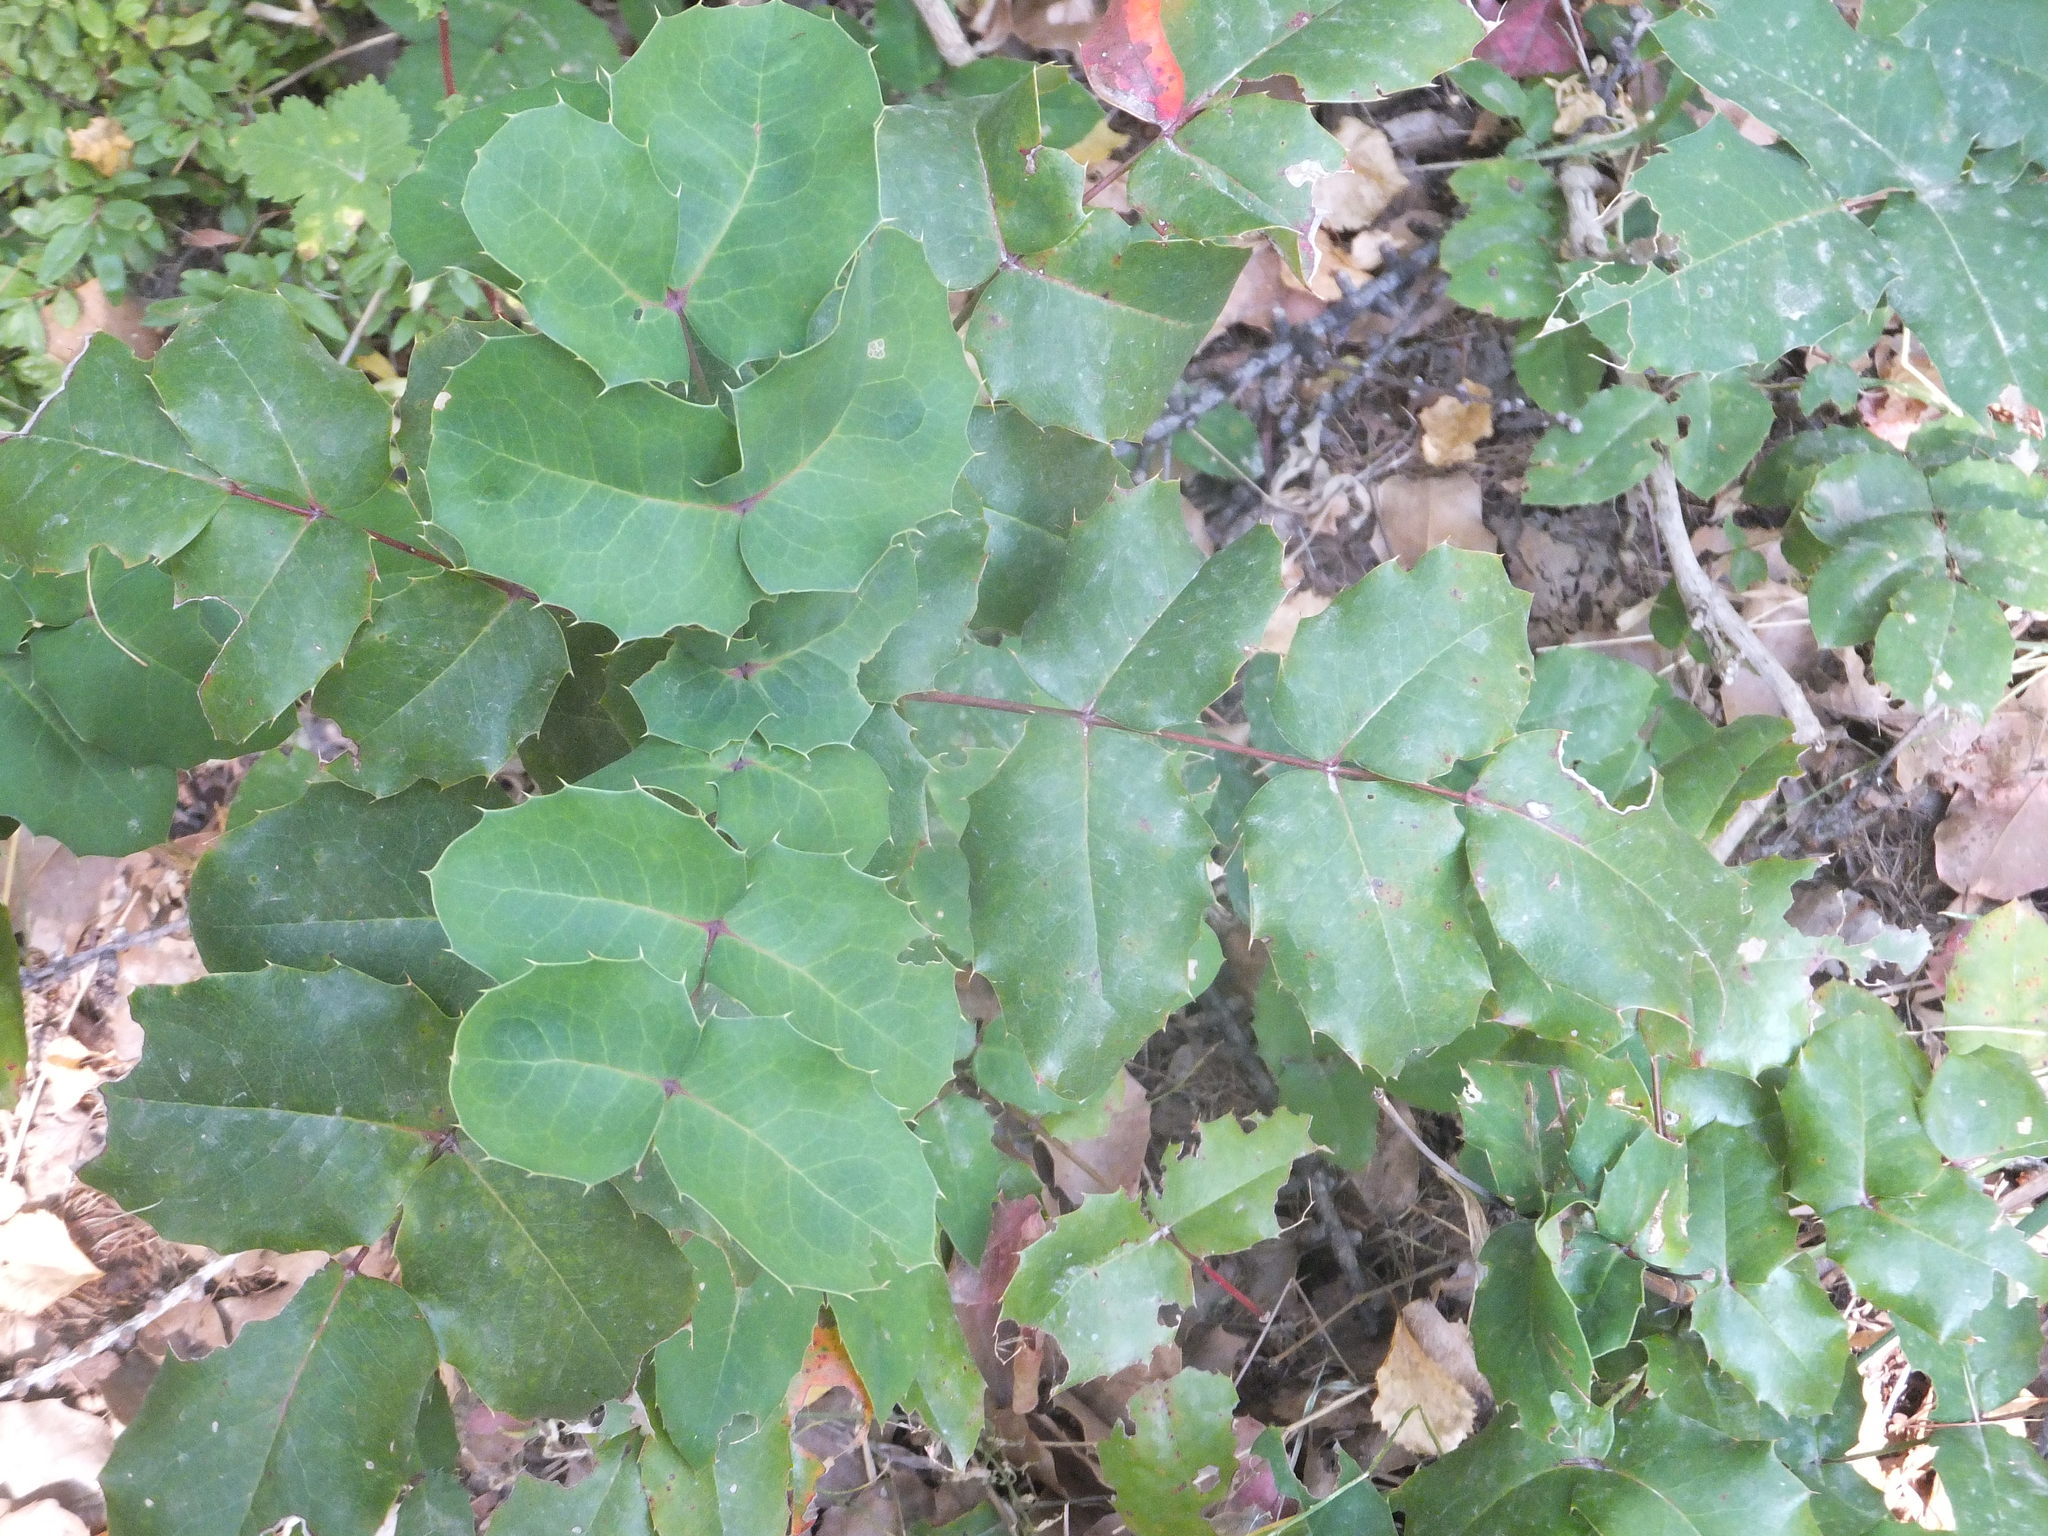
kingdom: Plantae
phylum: Tracheophyta
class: Magnoliopsida
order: Ranunculales
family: Berberidaceae
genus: Mahonia
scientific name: Mahonia repens
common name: Creeping oregon-grape
